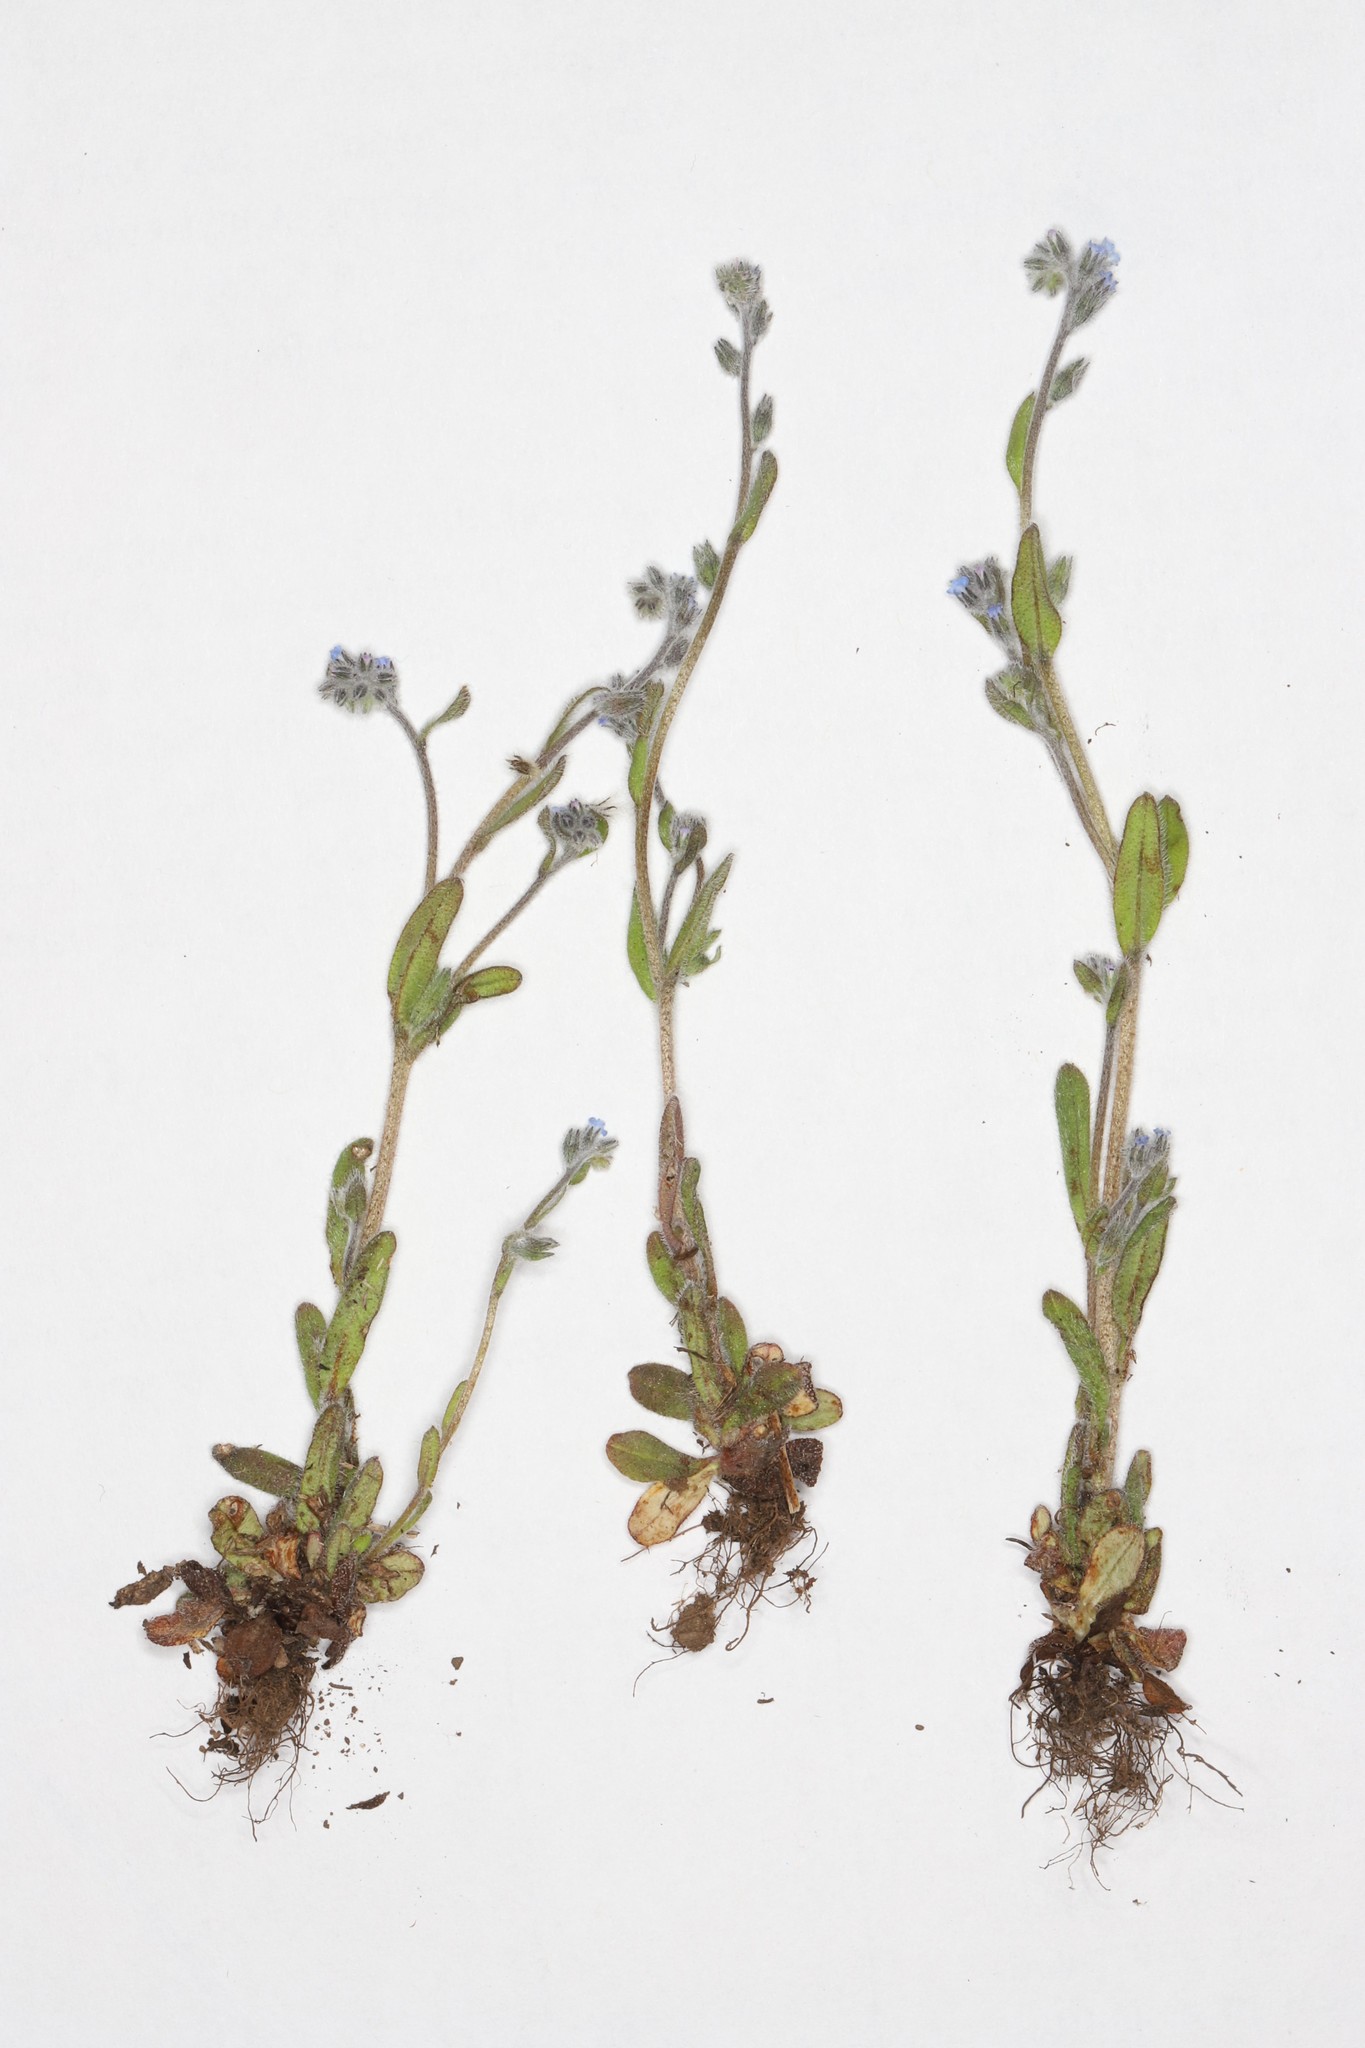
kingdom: Plantae
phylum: Tracheophyta
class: Magnoliopsida
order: Boraginales
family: Boraginaceae
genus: Myosotis
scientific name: Myosotis stricta
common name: Strict forget-me-not
